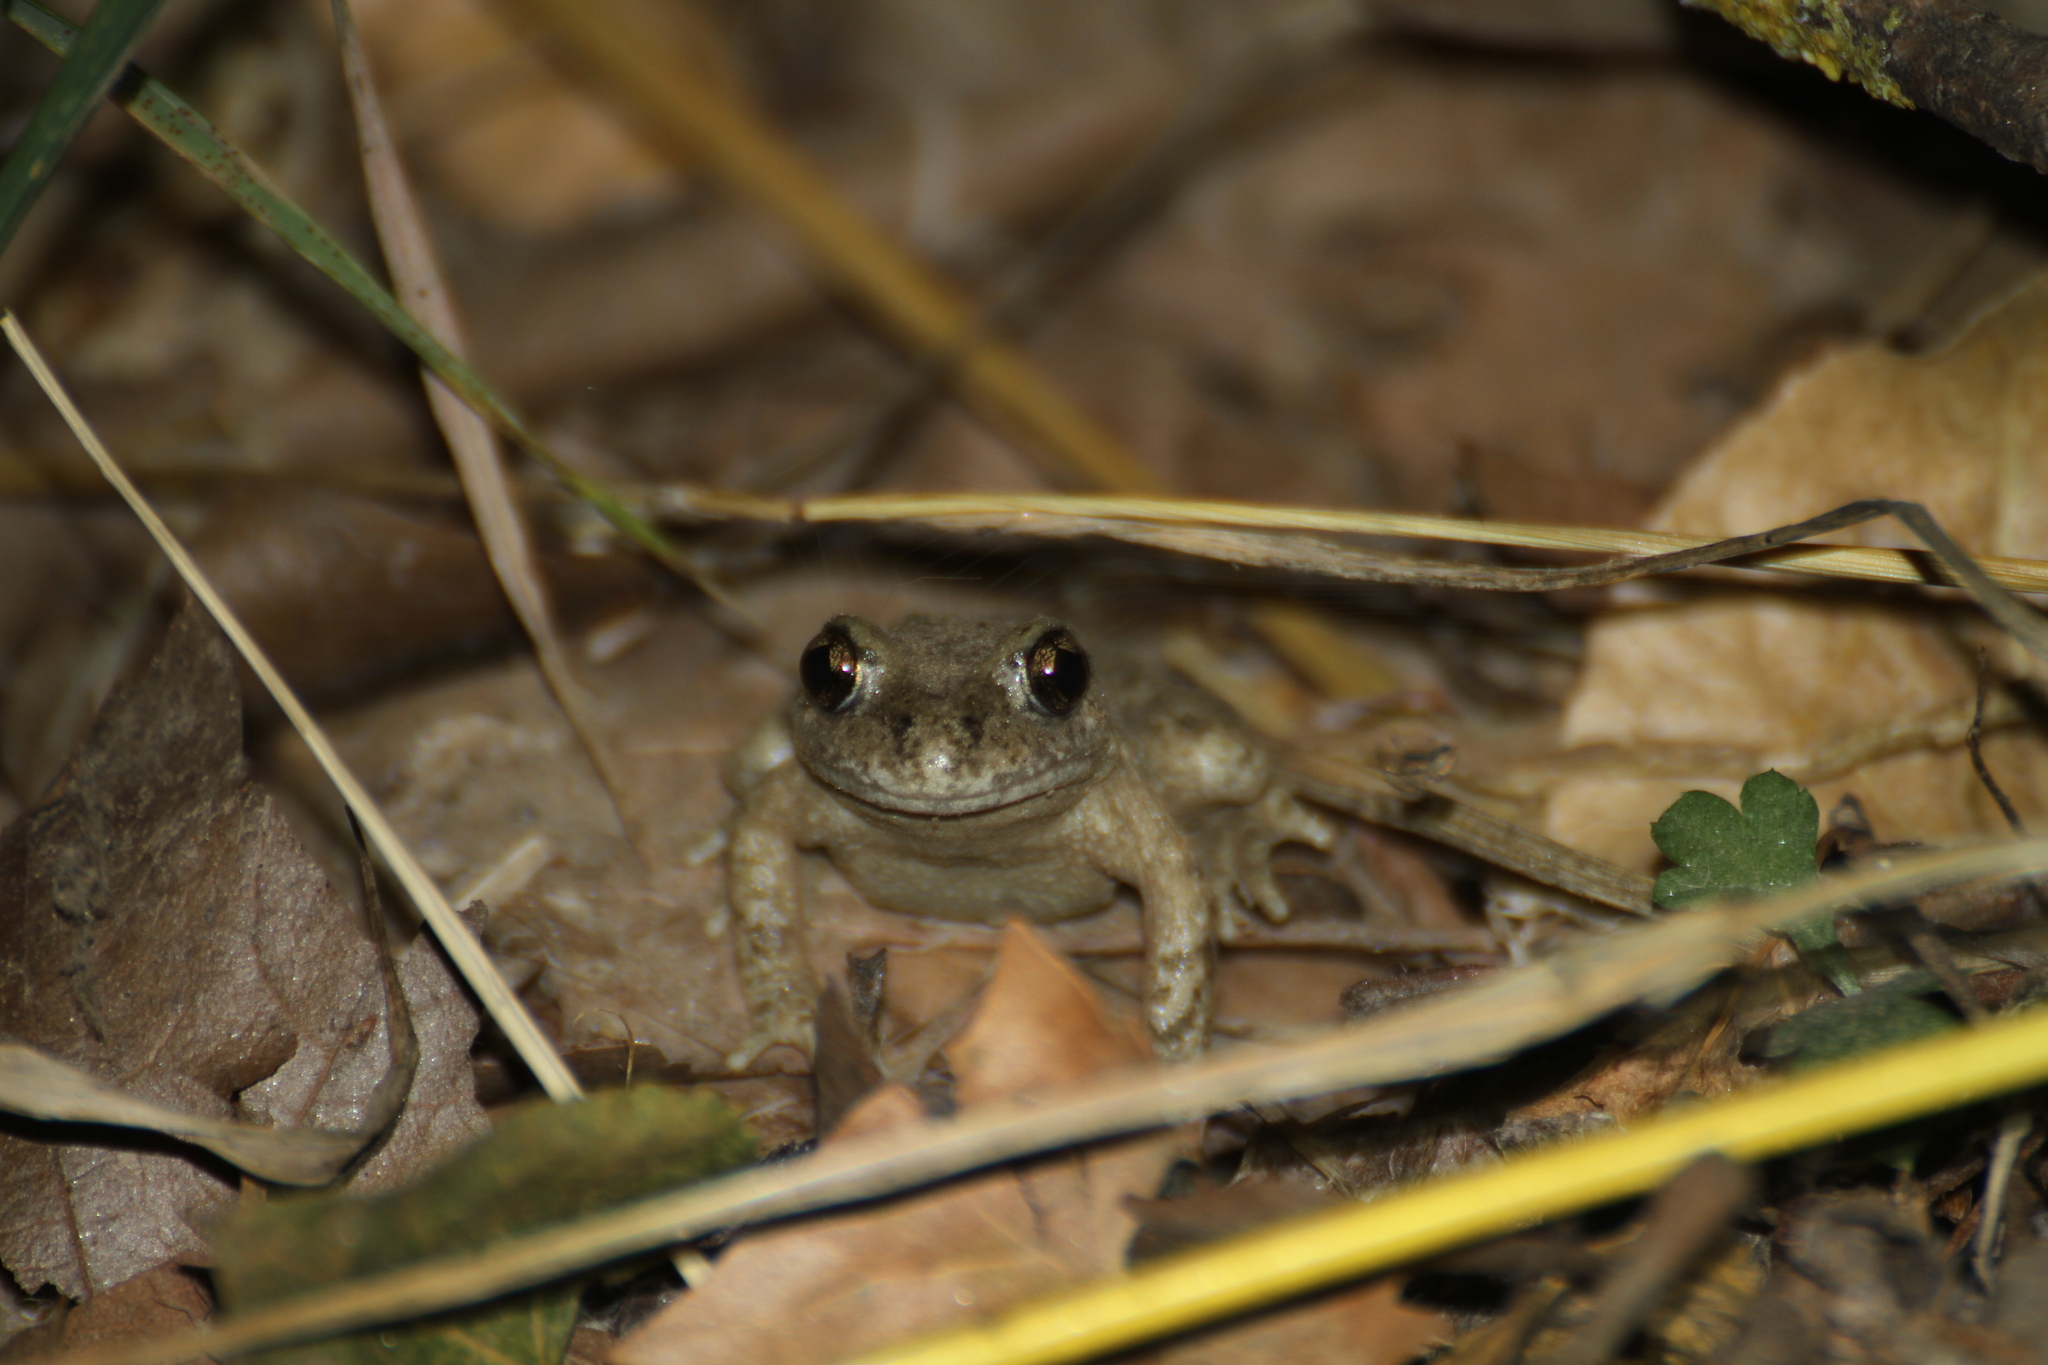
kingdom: Animalia
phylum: Chordata
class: Amphibia
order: Anura
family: Alytidae
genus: Alytes
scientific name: Alytes obstetricans
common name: Midwife toad
